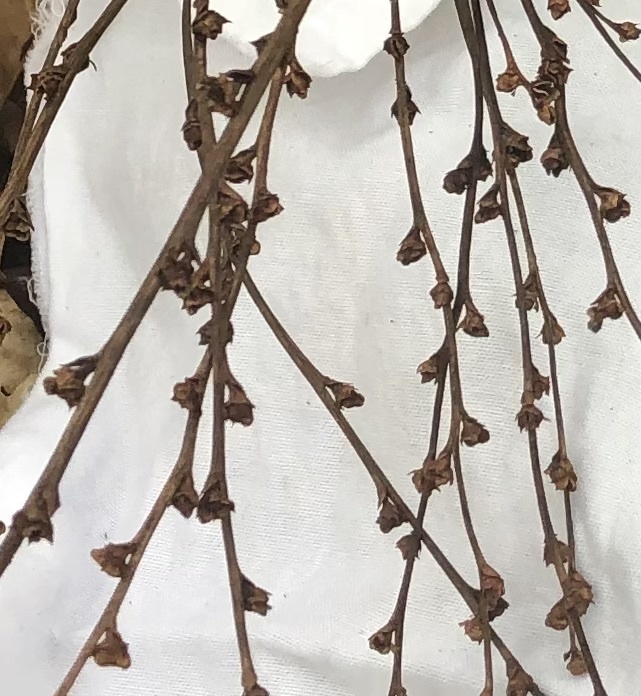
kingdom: Plantae
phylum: Tracheophyta
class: Magnoliopsida
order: Lamiales
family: Orobanchaceae
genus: Epifagus
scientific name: Epifagus virginiana
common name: Beechdrops
